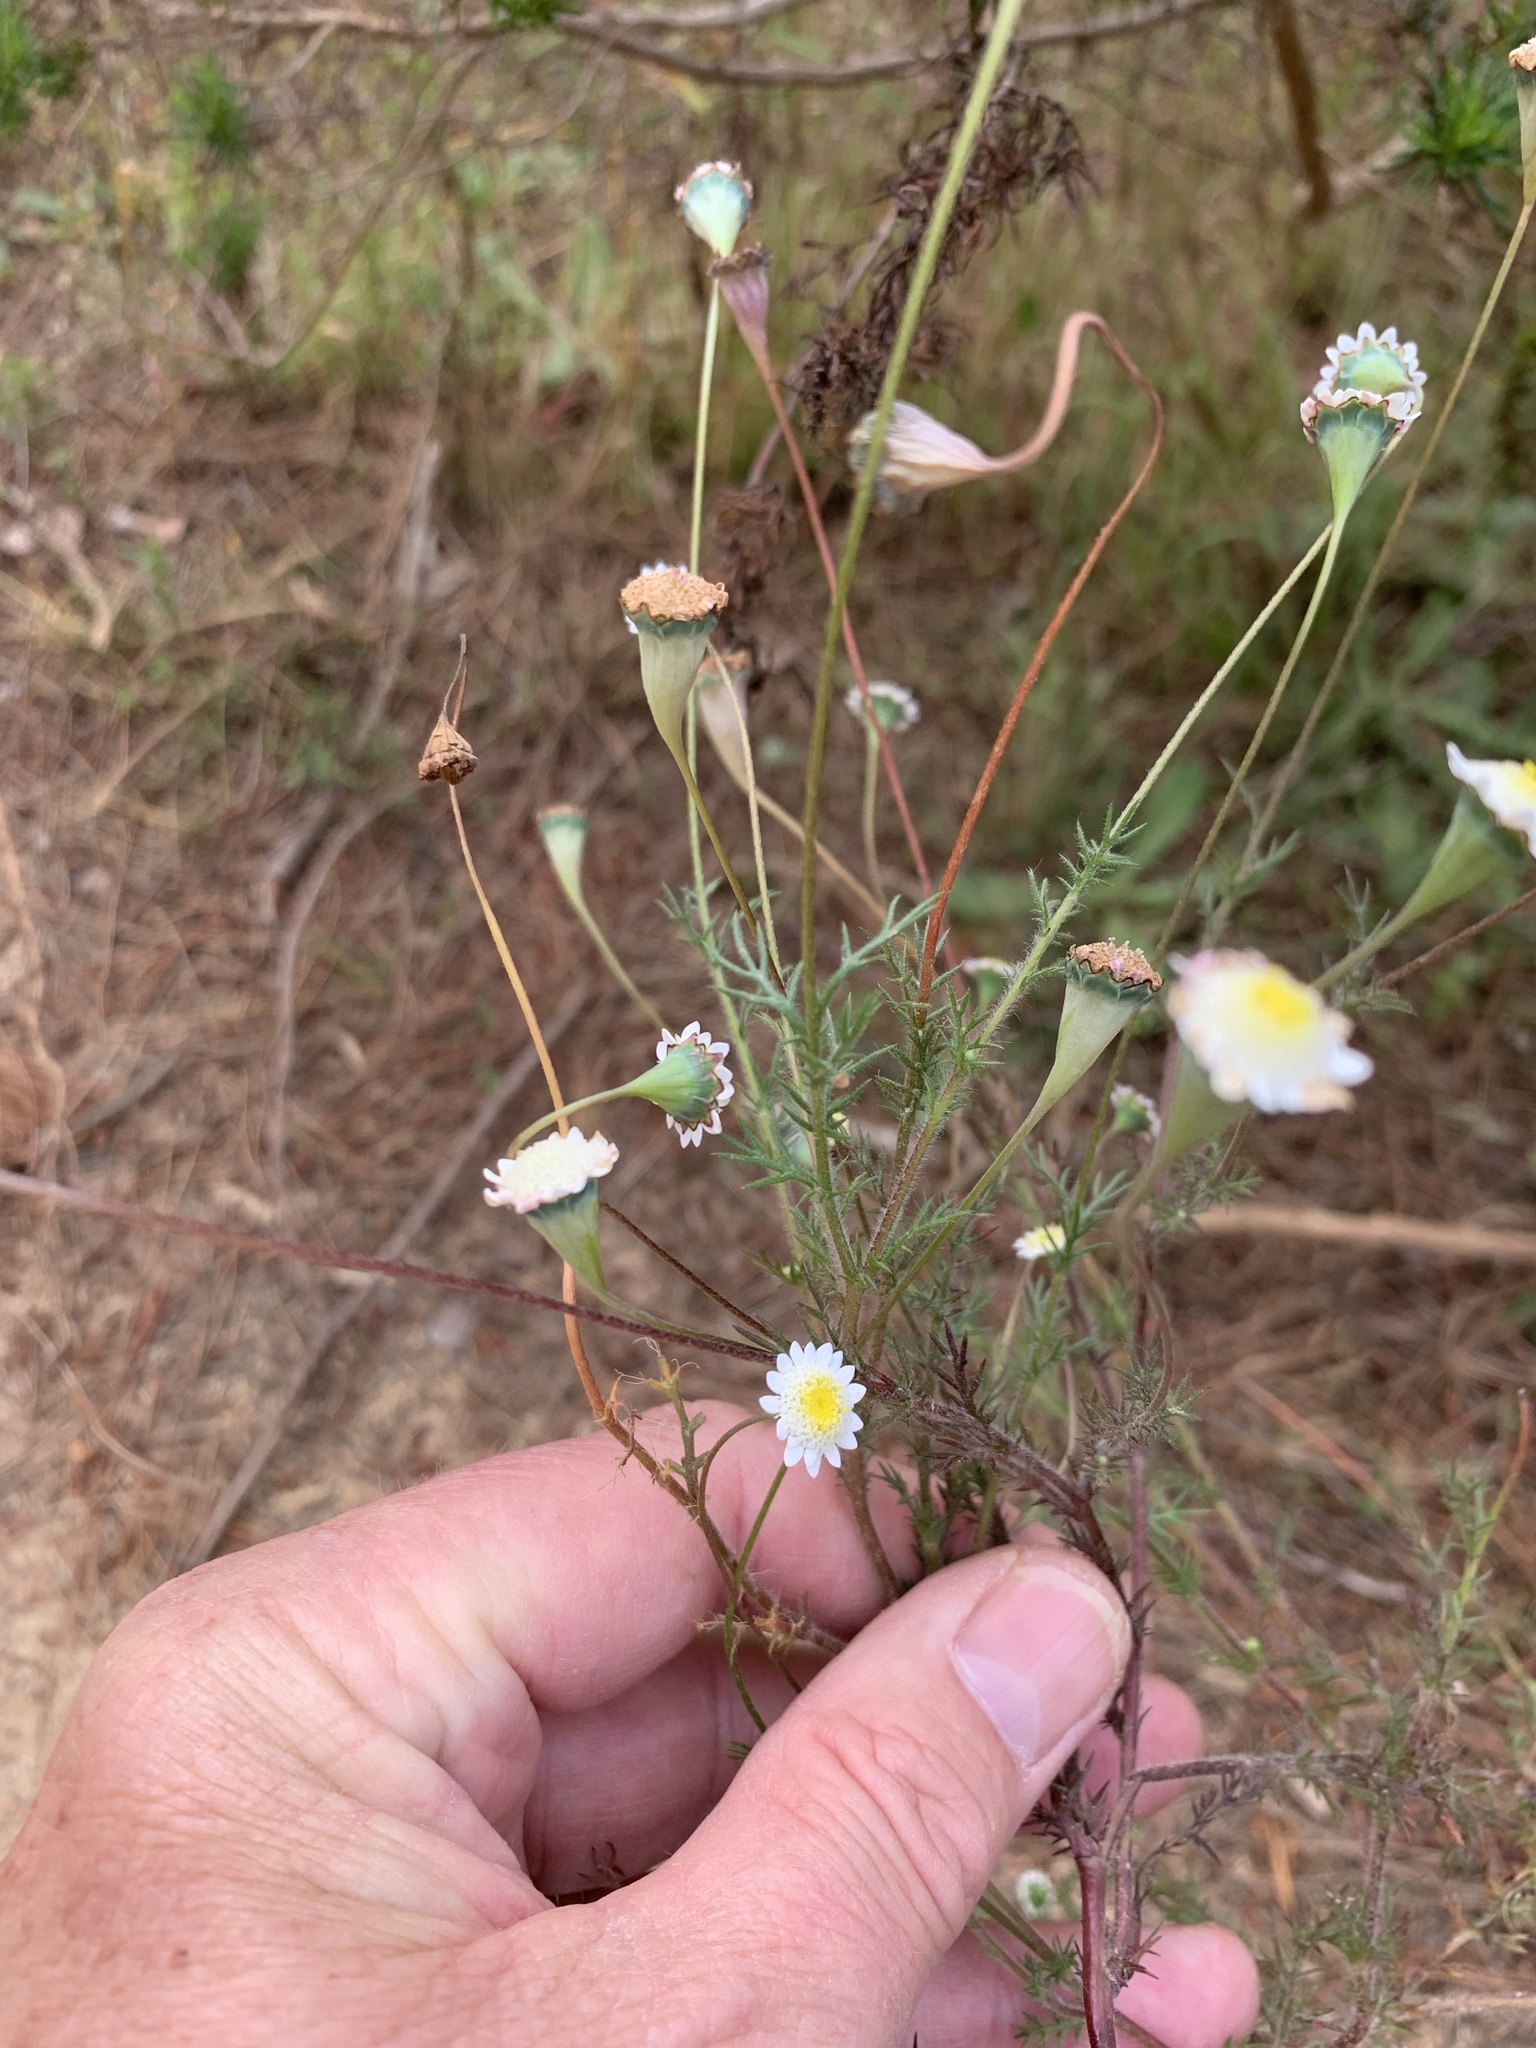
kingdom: Plantae
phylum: Tracheophyta
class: Magnoliopsida
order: Asterales
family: Asteraceae
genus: Cotula
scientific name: Cotula turbinata
